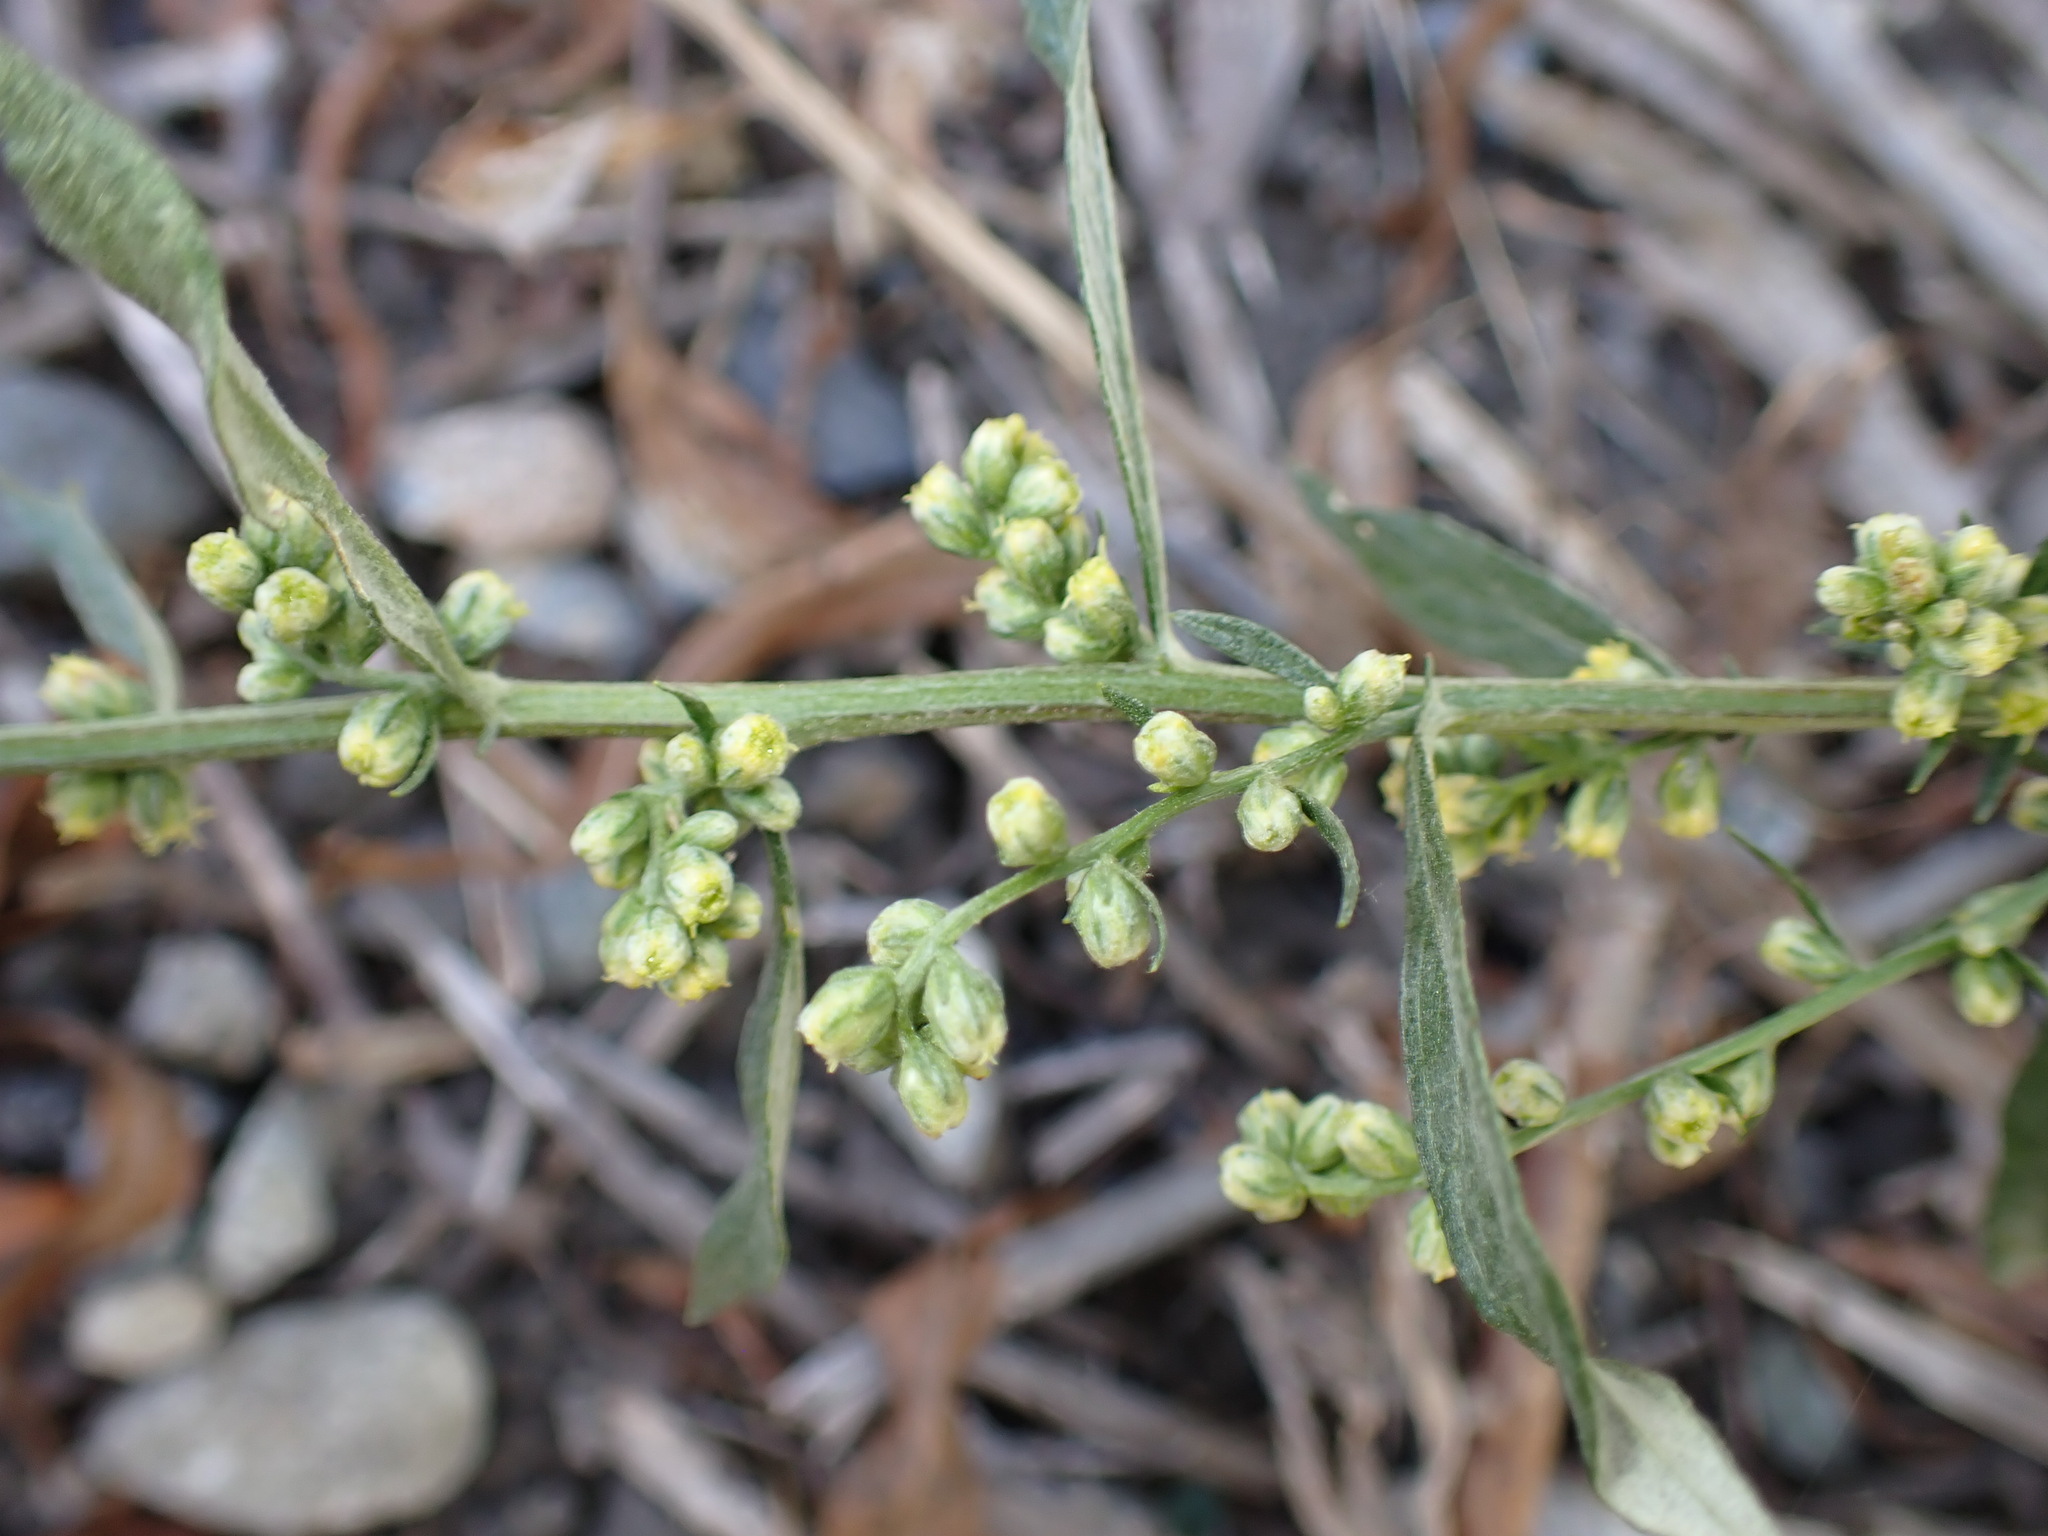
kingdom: Plantae
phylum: Tracheophyta
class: Magnoliopsida
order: Asterales
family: Asteraceae
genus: Artemisia
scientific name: Artemisia douglasiana
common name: Northwest mugwort
